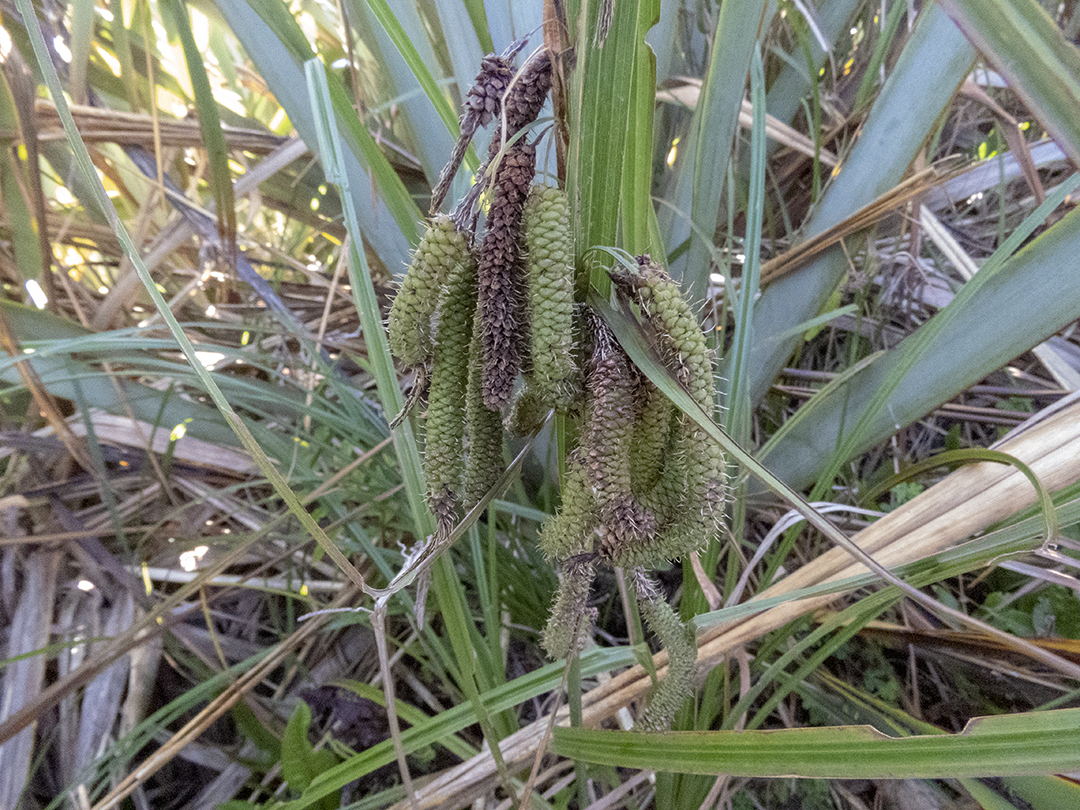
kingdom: Plantae
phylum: Tracheophyta
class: Liliopsida
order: Poales
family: Cyperaceae
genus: Carex
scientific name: Carex geminata
